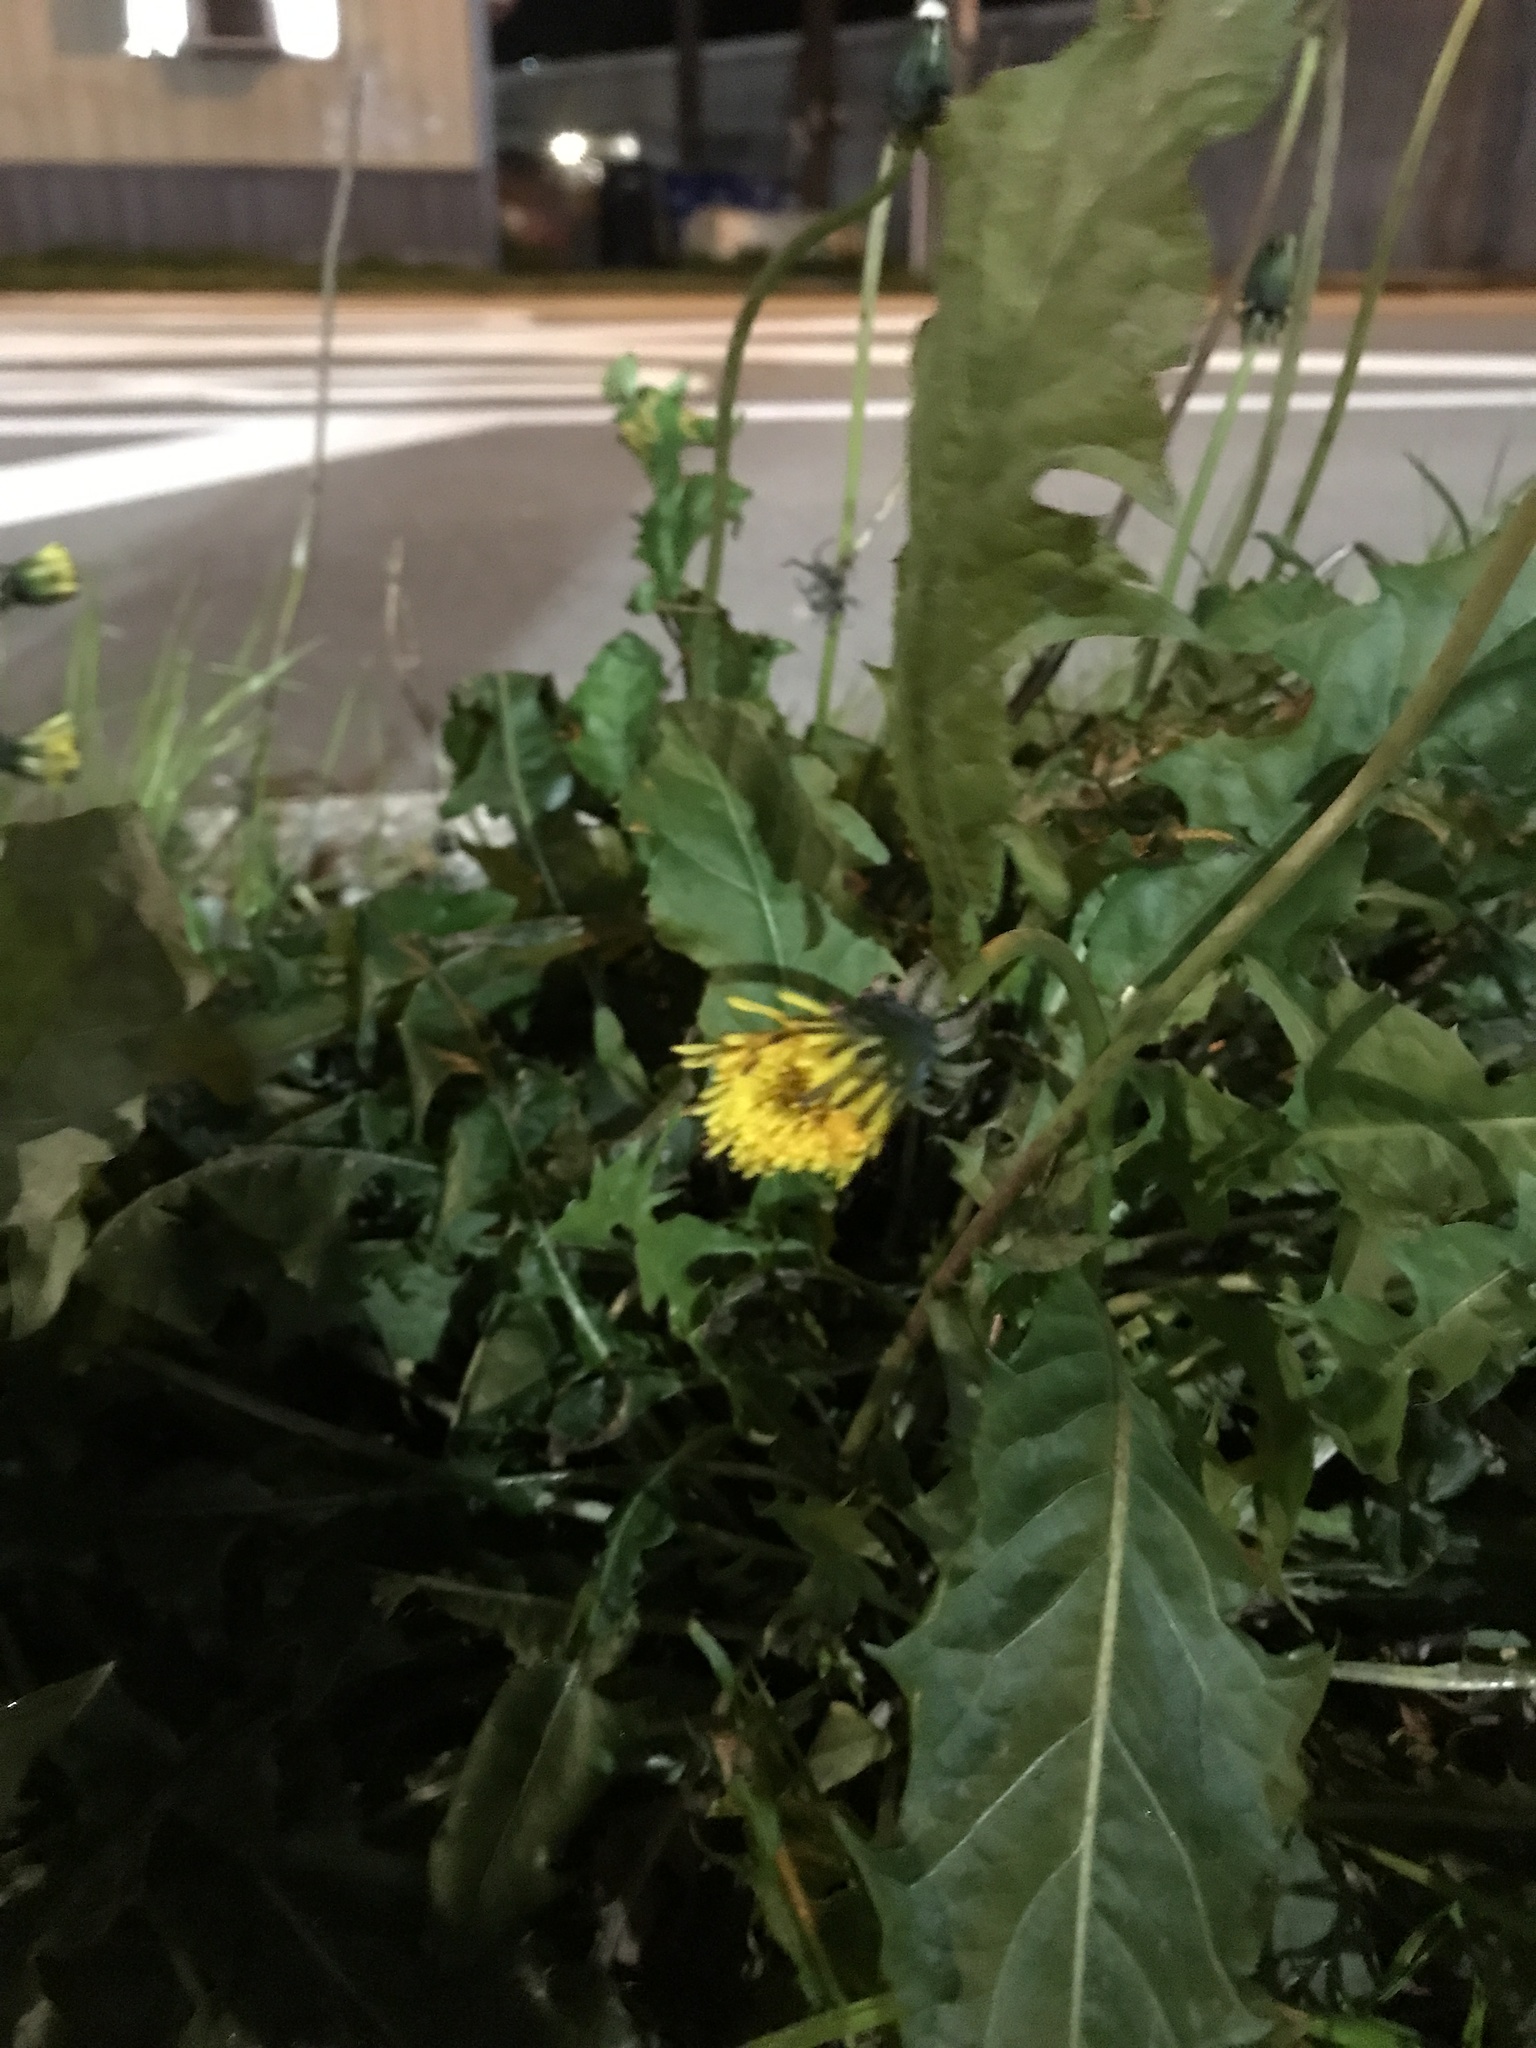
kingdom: Plantae
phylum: Tracheophyta
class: Magnoliopsida
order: Asterales
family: Asteraceae
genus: Taraxacum
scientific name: Taraxacum officinale
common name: Common dandelion
